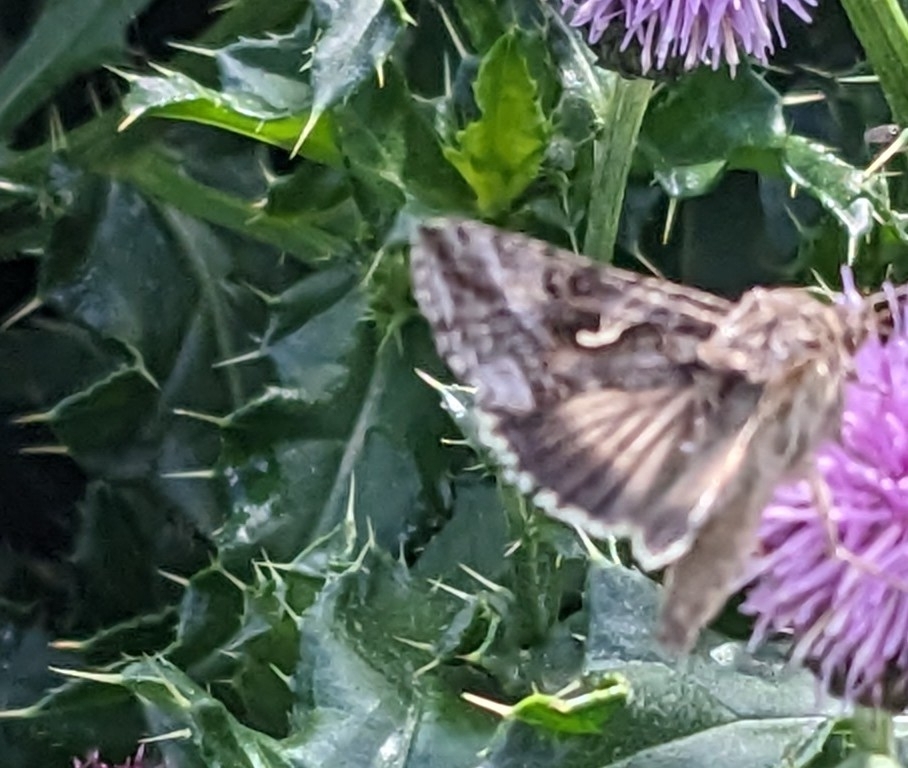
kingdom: Animalia
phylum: Arthropoda
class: Insecta
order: Lepidoptera
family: Noctuidae
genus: Autographa
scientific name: Autographa gamma
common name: Silver y
